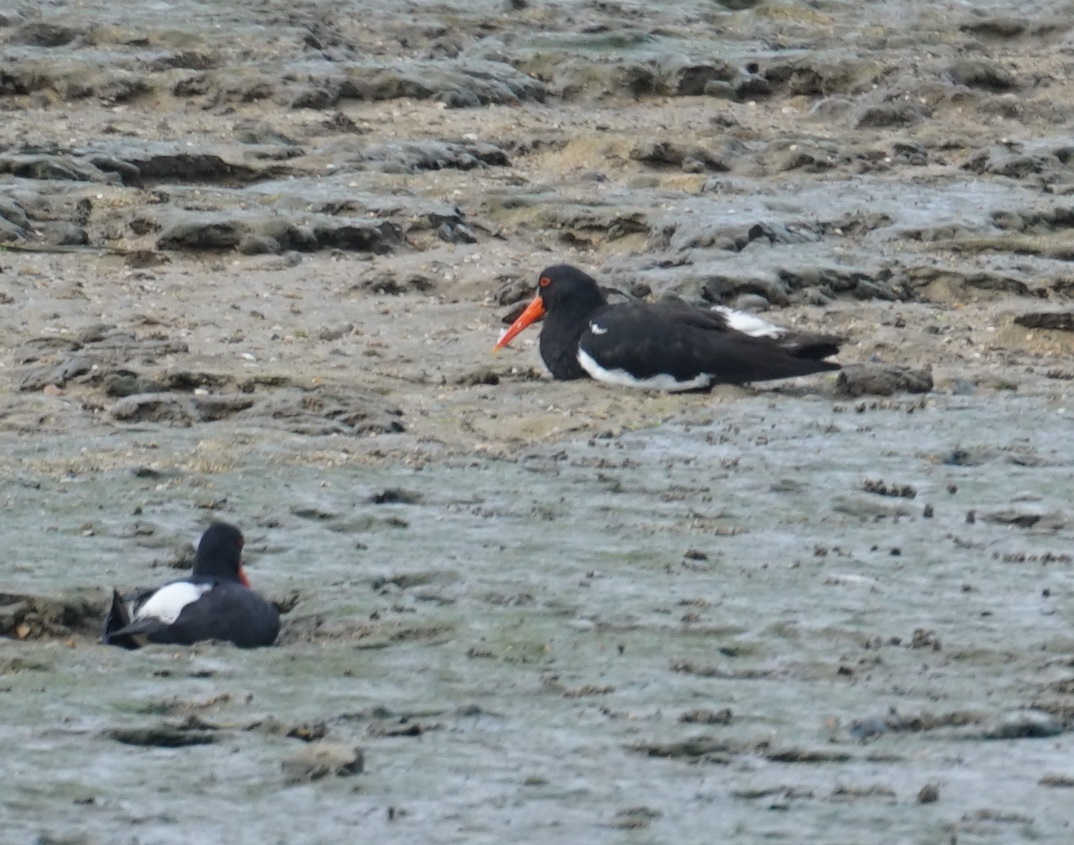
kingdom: Animalia
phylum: Chordata
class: Aves
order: Charadriiformes
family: Haematopodidae
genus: Haematopus
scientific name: Haematopus longirostris
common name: Pied oystercatcher
